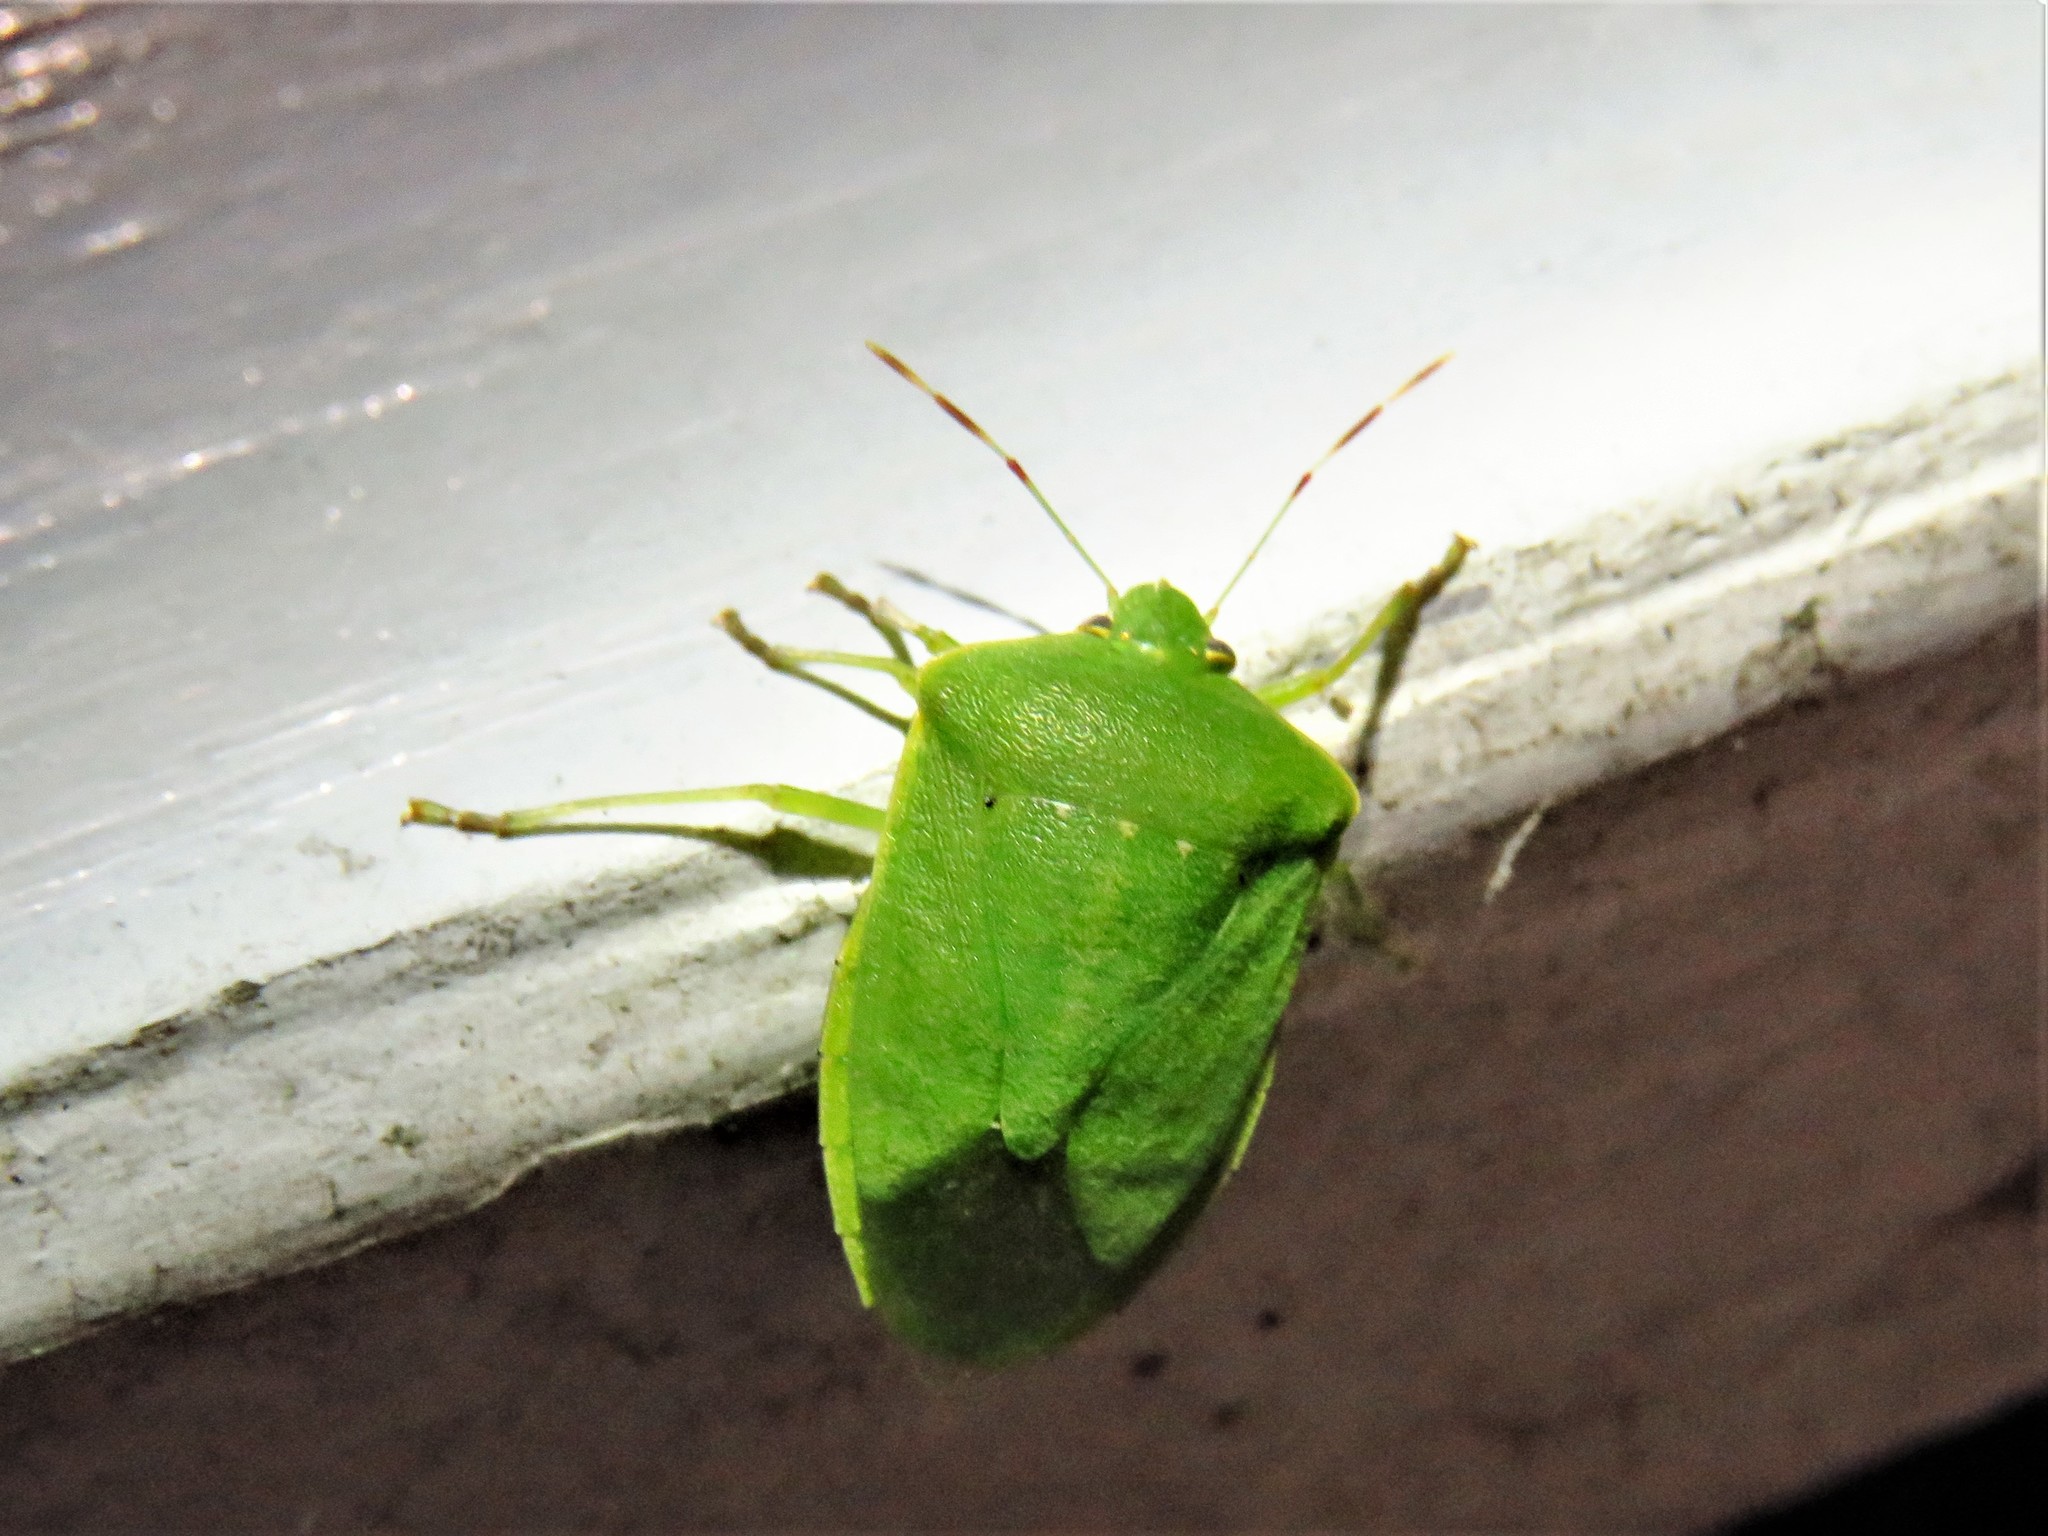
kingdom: Animalia
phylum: Arthropoda
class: Insecta
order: Hemiptera
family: Pentatomidae
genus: Nezara
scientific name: Nezara viridula
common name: Southern green stink bug
